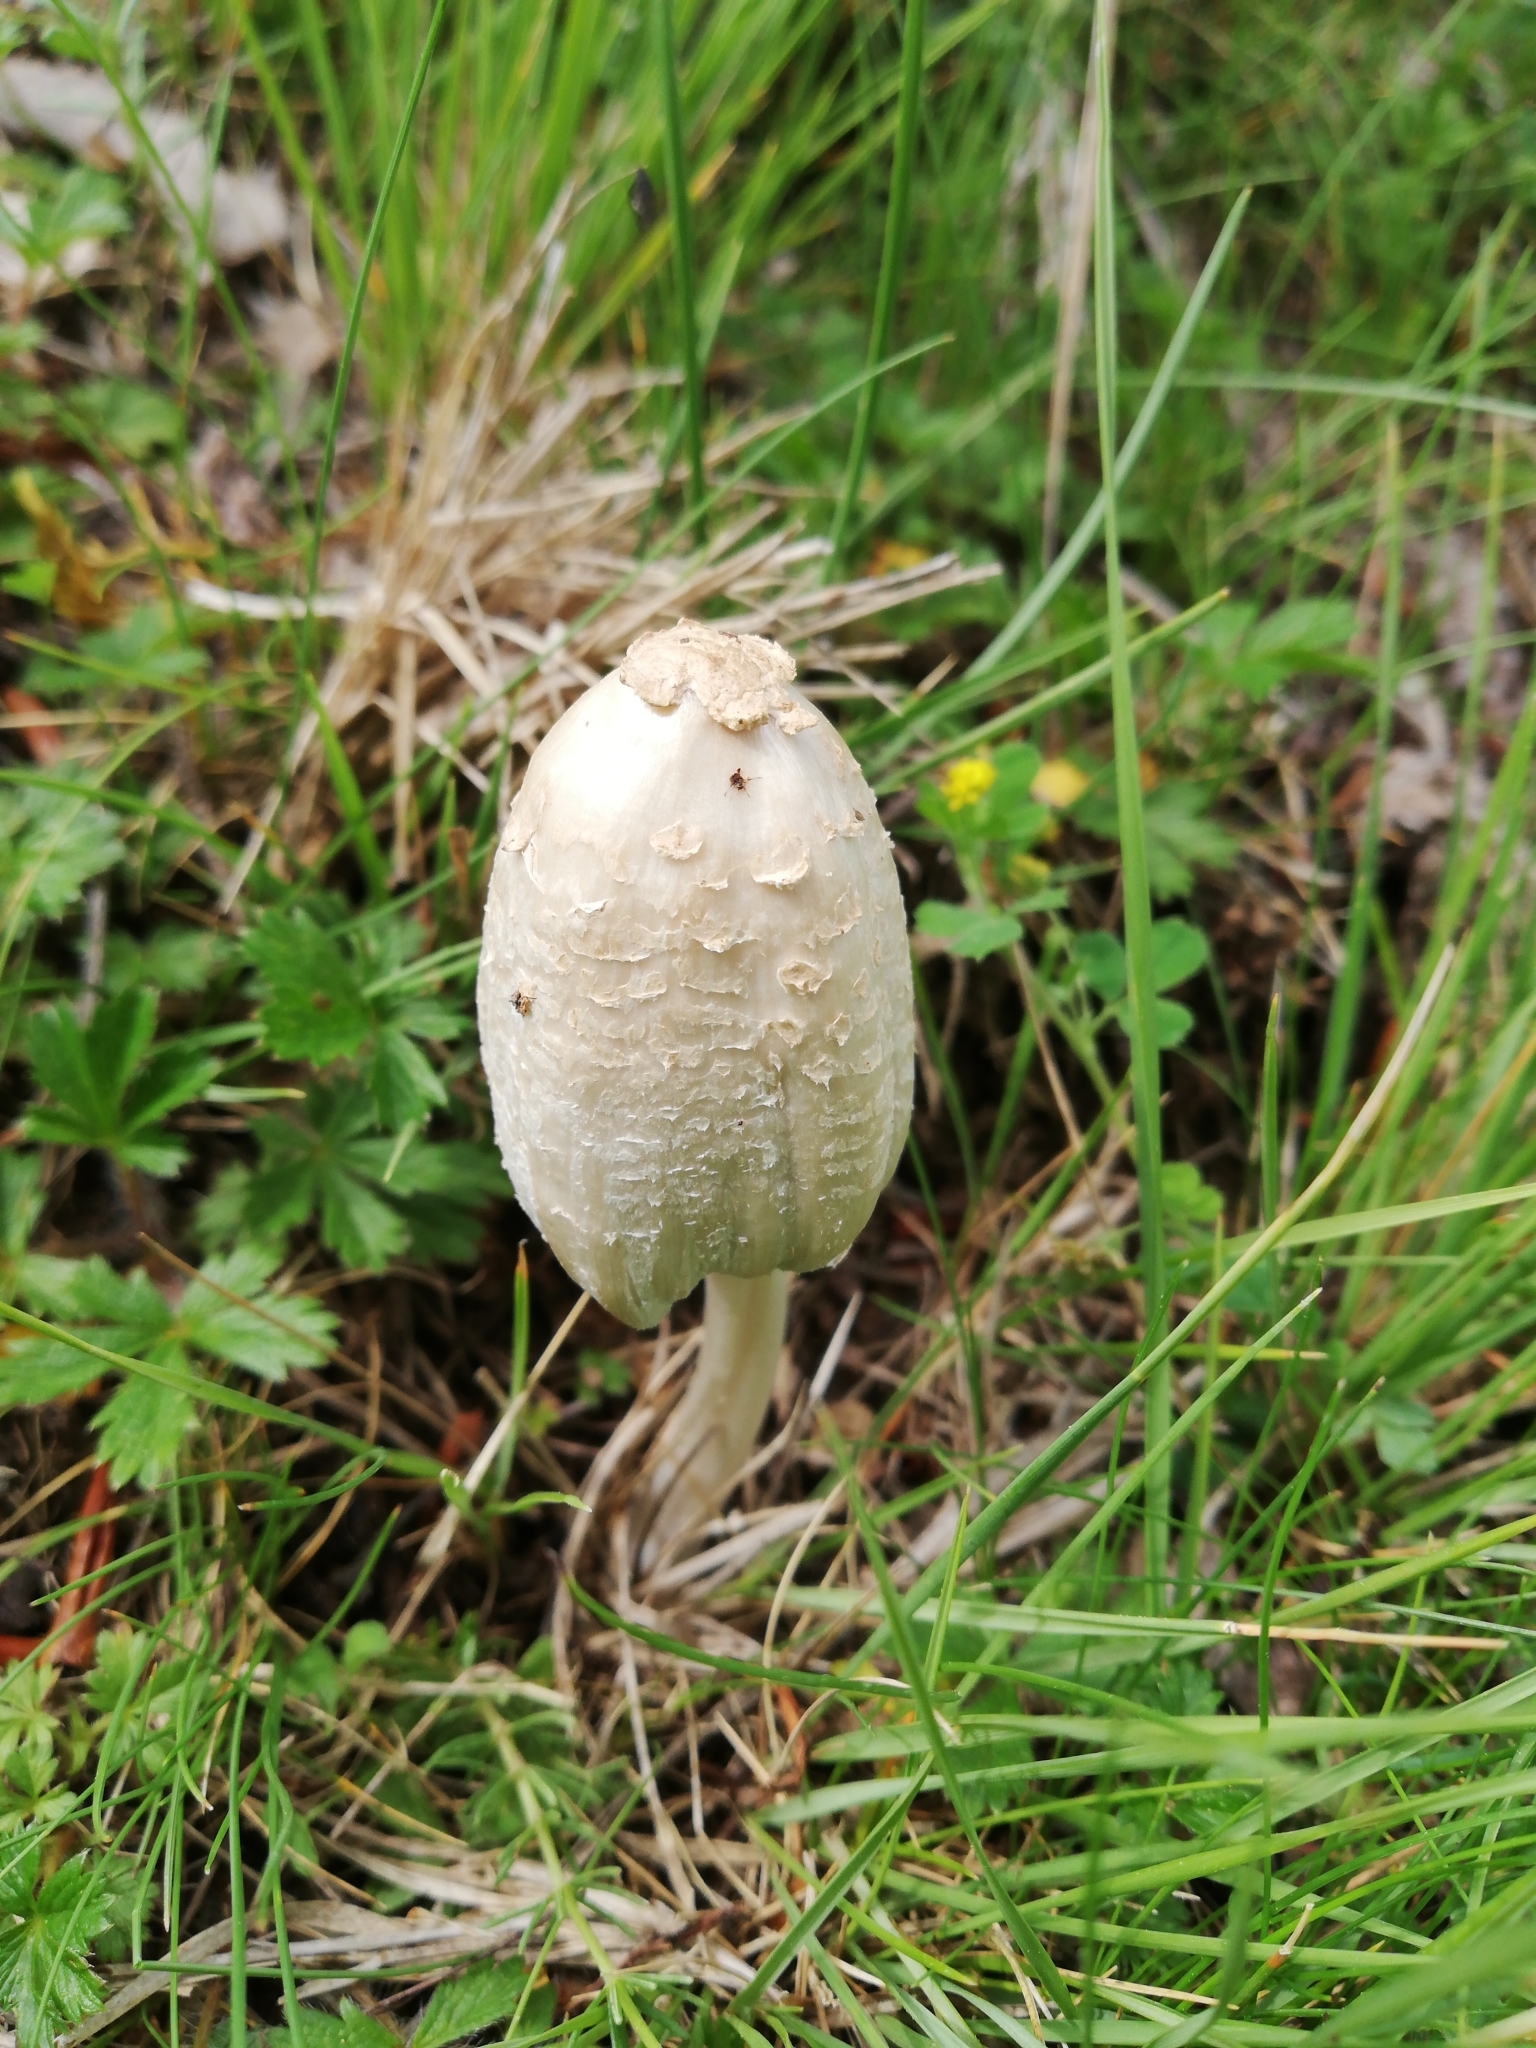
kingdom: Fungi
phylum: Basidiomycota
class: Agaricomycetes
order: Agaricales
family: Agaricaceae
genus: Coprinus
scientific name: Coprinus comatus
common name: Lawyer's wig
